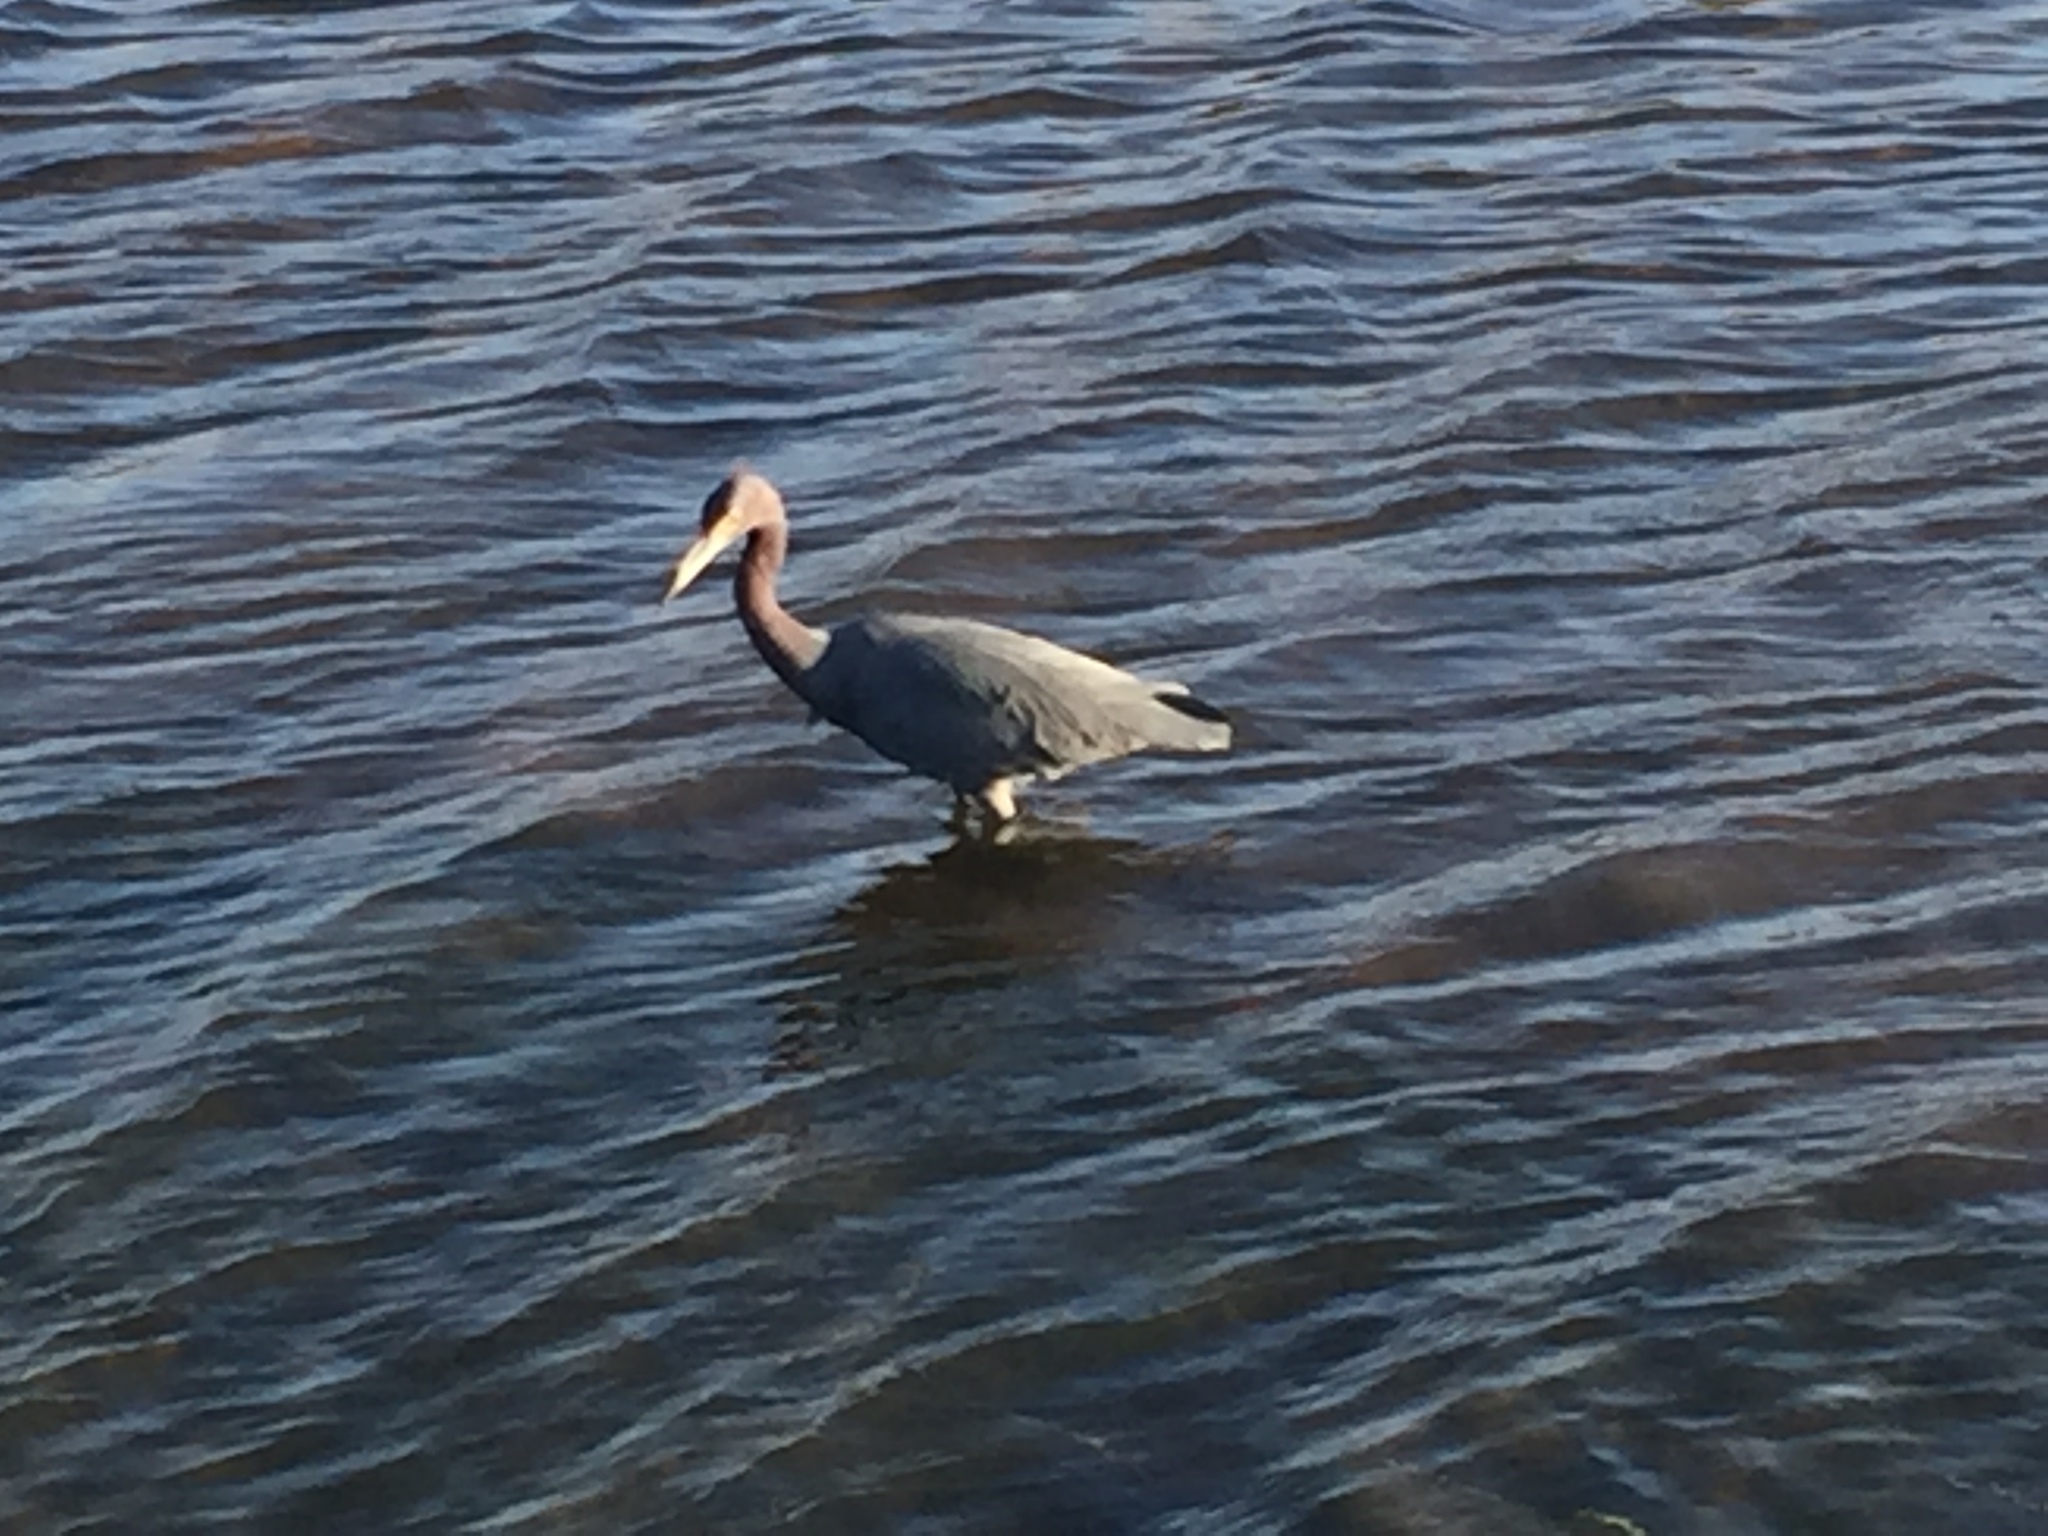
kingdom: Animalia
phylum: Chordata
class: Aves
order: Pelecaniformes
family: Ardeidae
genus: Egretta
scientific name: Egretta caerulea
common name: Little blue heron
